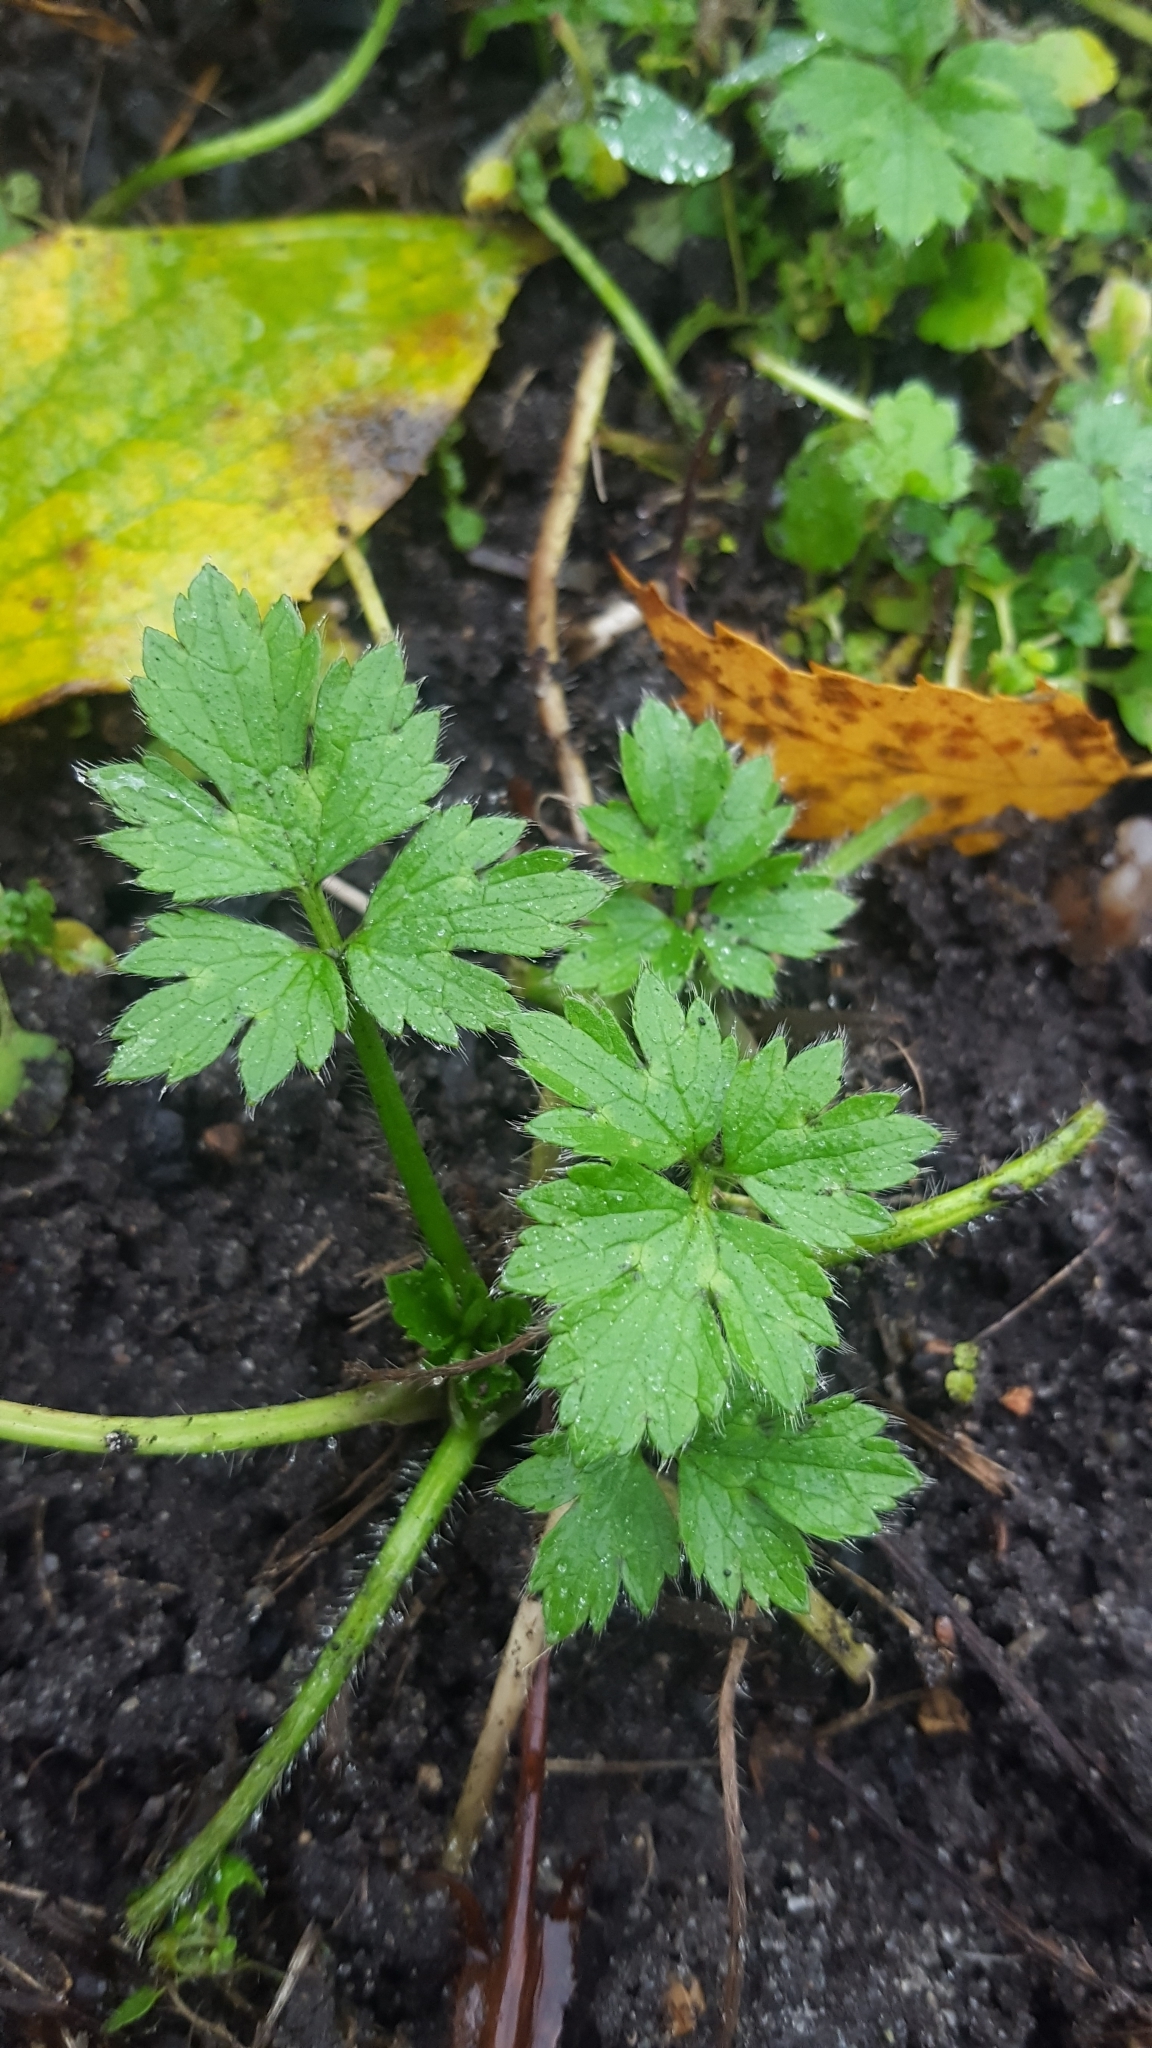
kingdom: Plantae
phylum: Tracheophyta
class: Magnoliopsida
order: Ranunculales
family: Ranunculaceae
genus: Ranunculus
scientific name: Ranunculus repens
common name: Creeping buttercup
